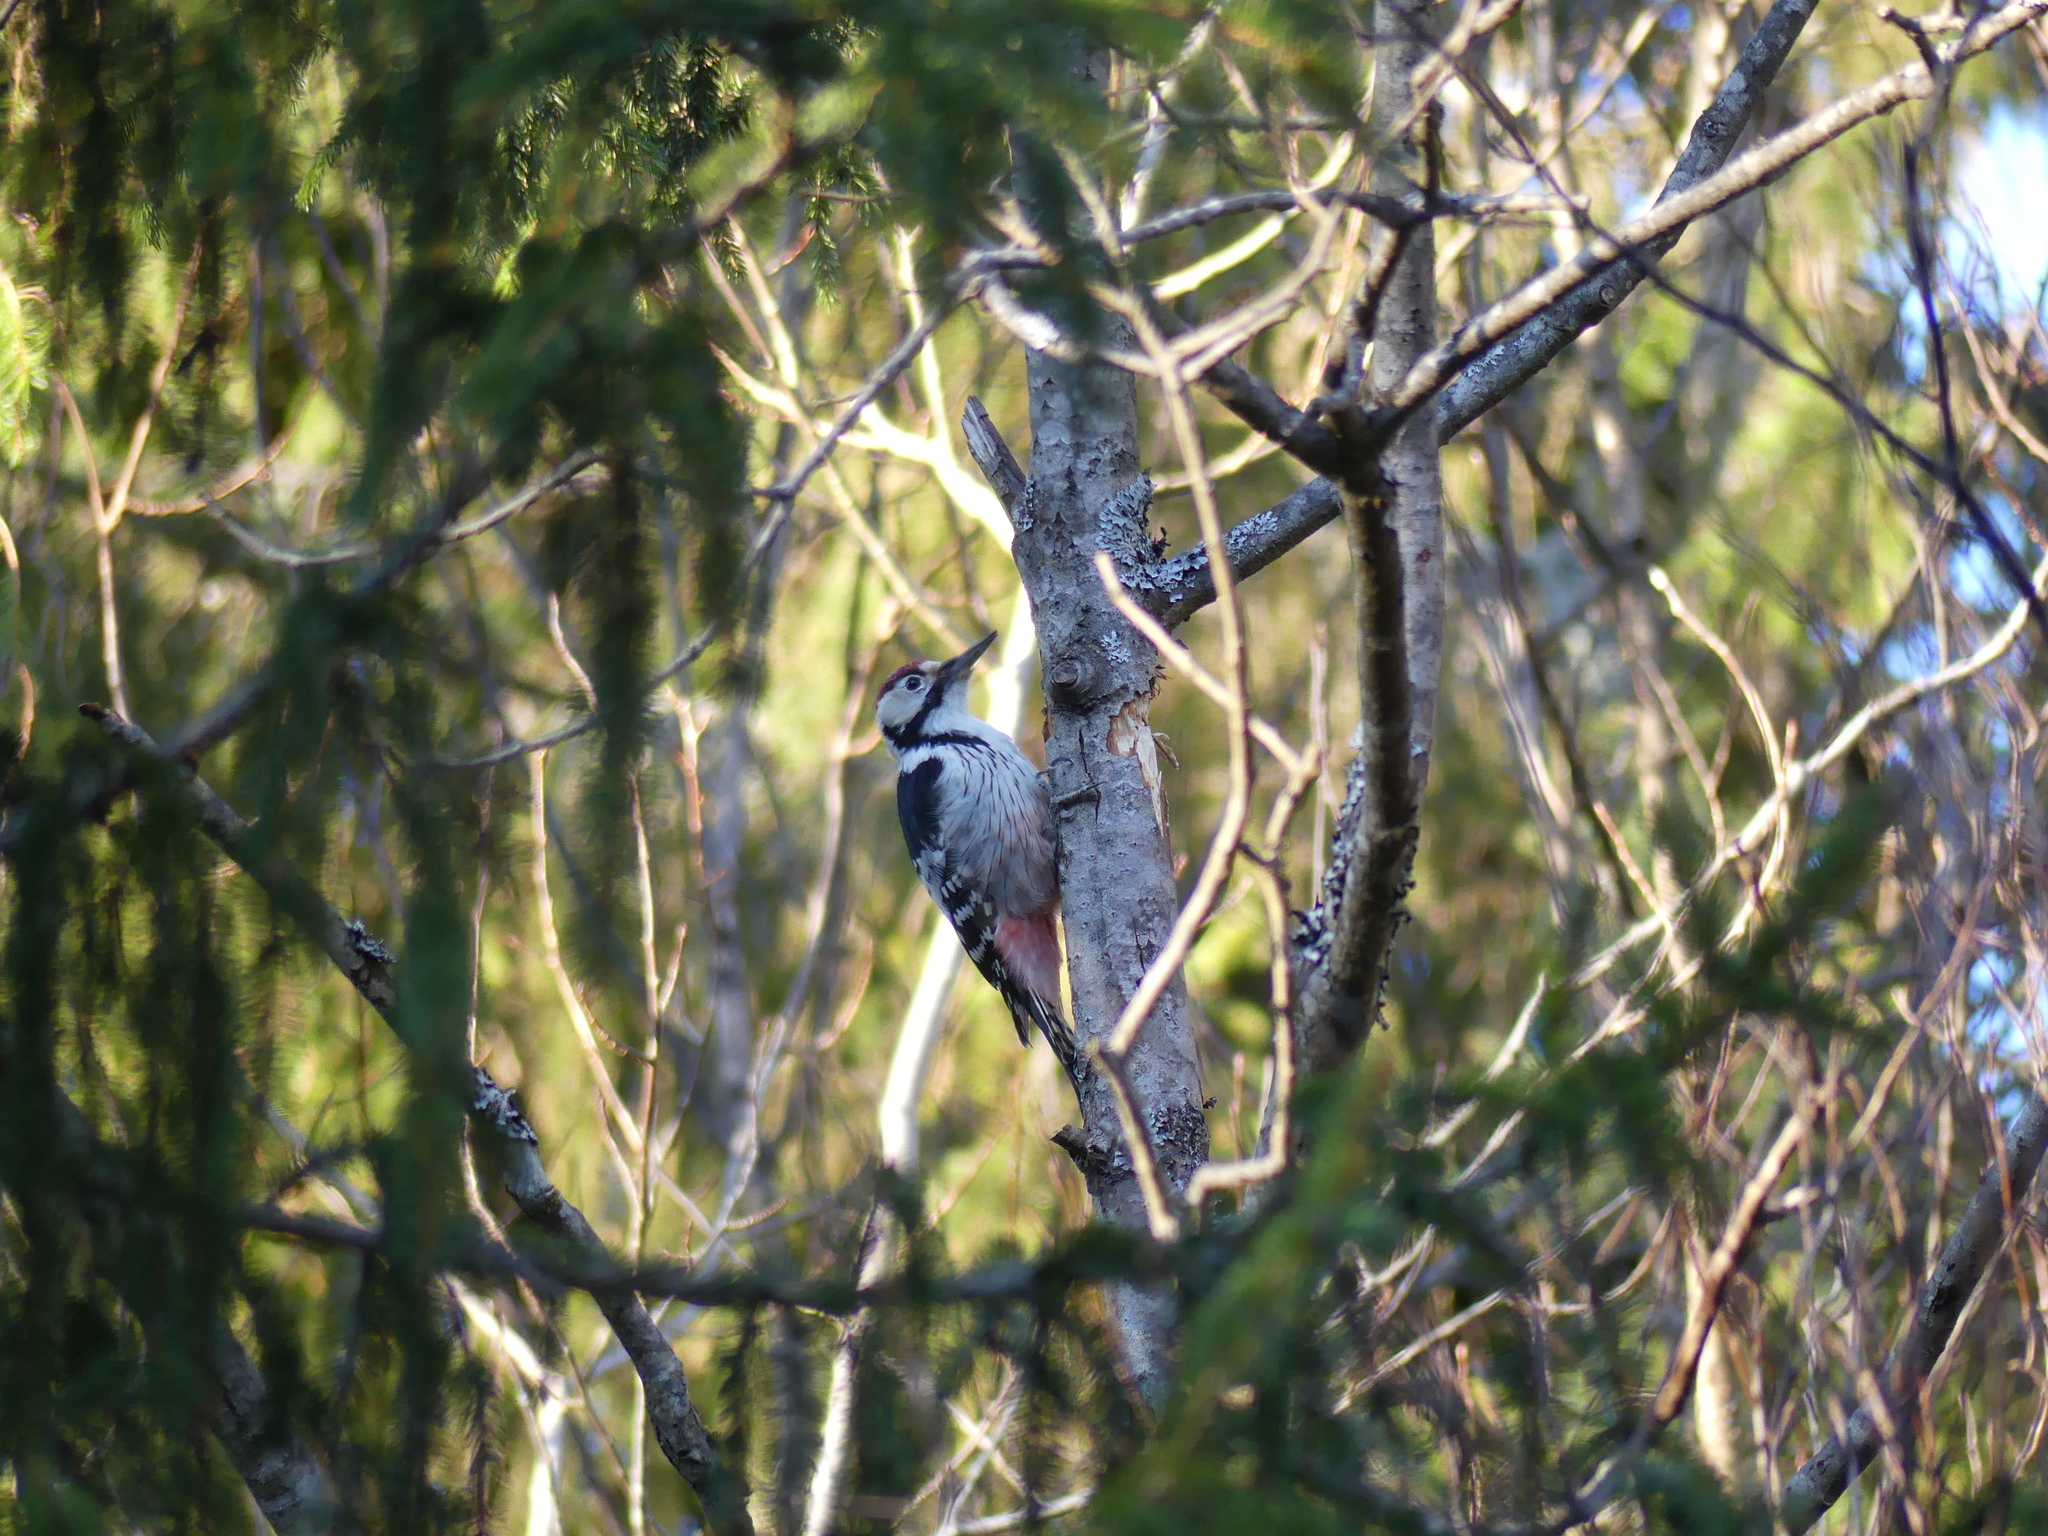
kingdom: Animalia
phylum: Chordata
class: Aves
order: Piciformes
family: Picidae
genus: Dendrocopos
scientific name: Dendrocopos leucotos
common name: White-backed woodpecker
